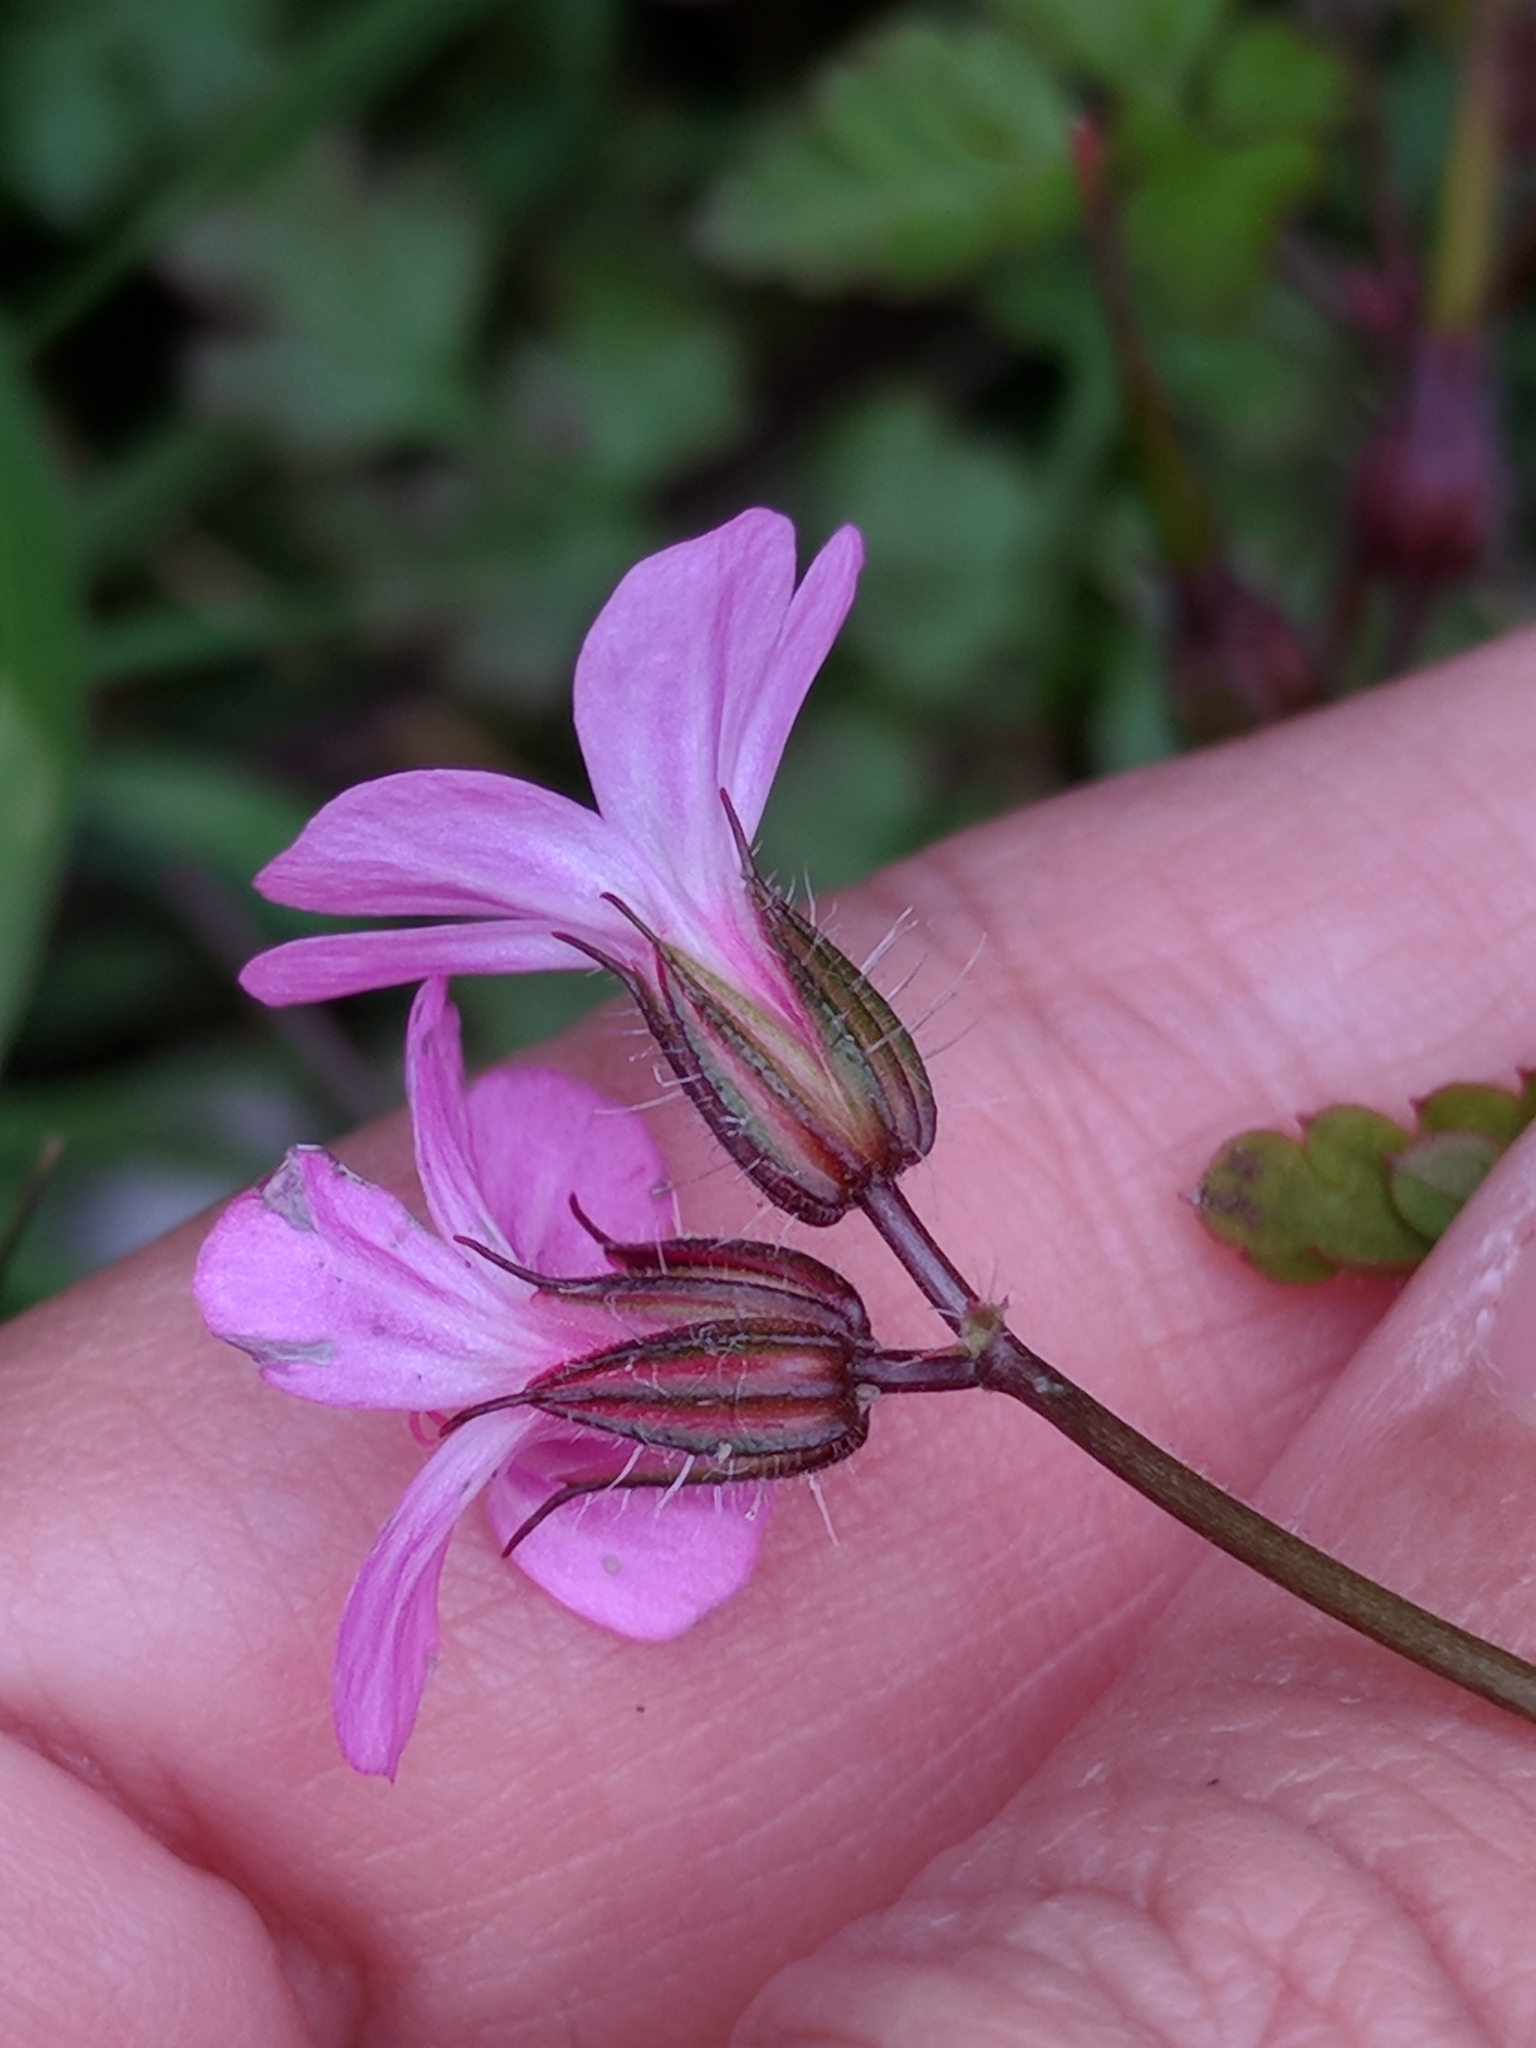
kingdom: Plantae
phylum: Tracheophyta
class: Magnoliopsida
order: Geraniales
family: Geraniaceae
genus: Geranium
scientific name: Geranium robertianum
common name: Herb-robert
